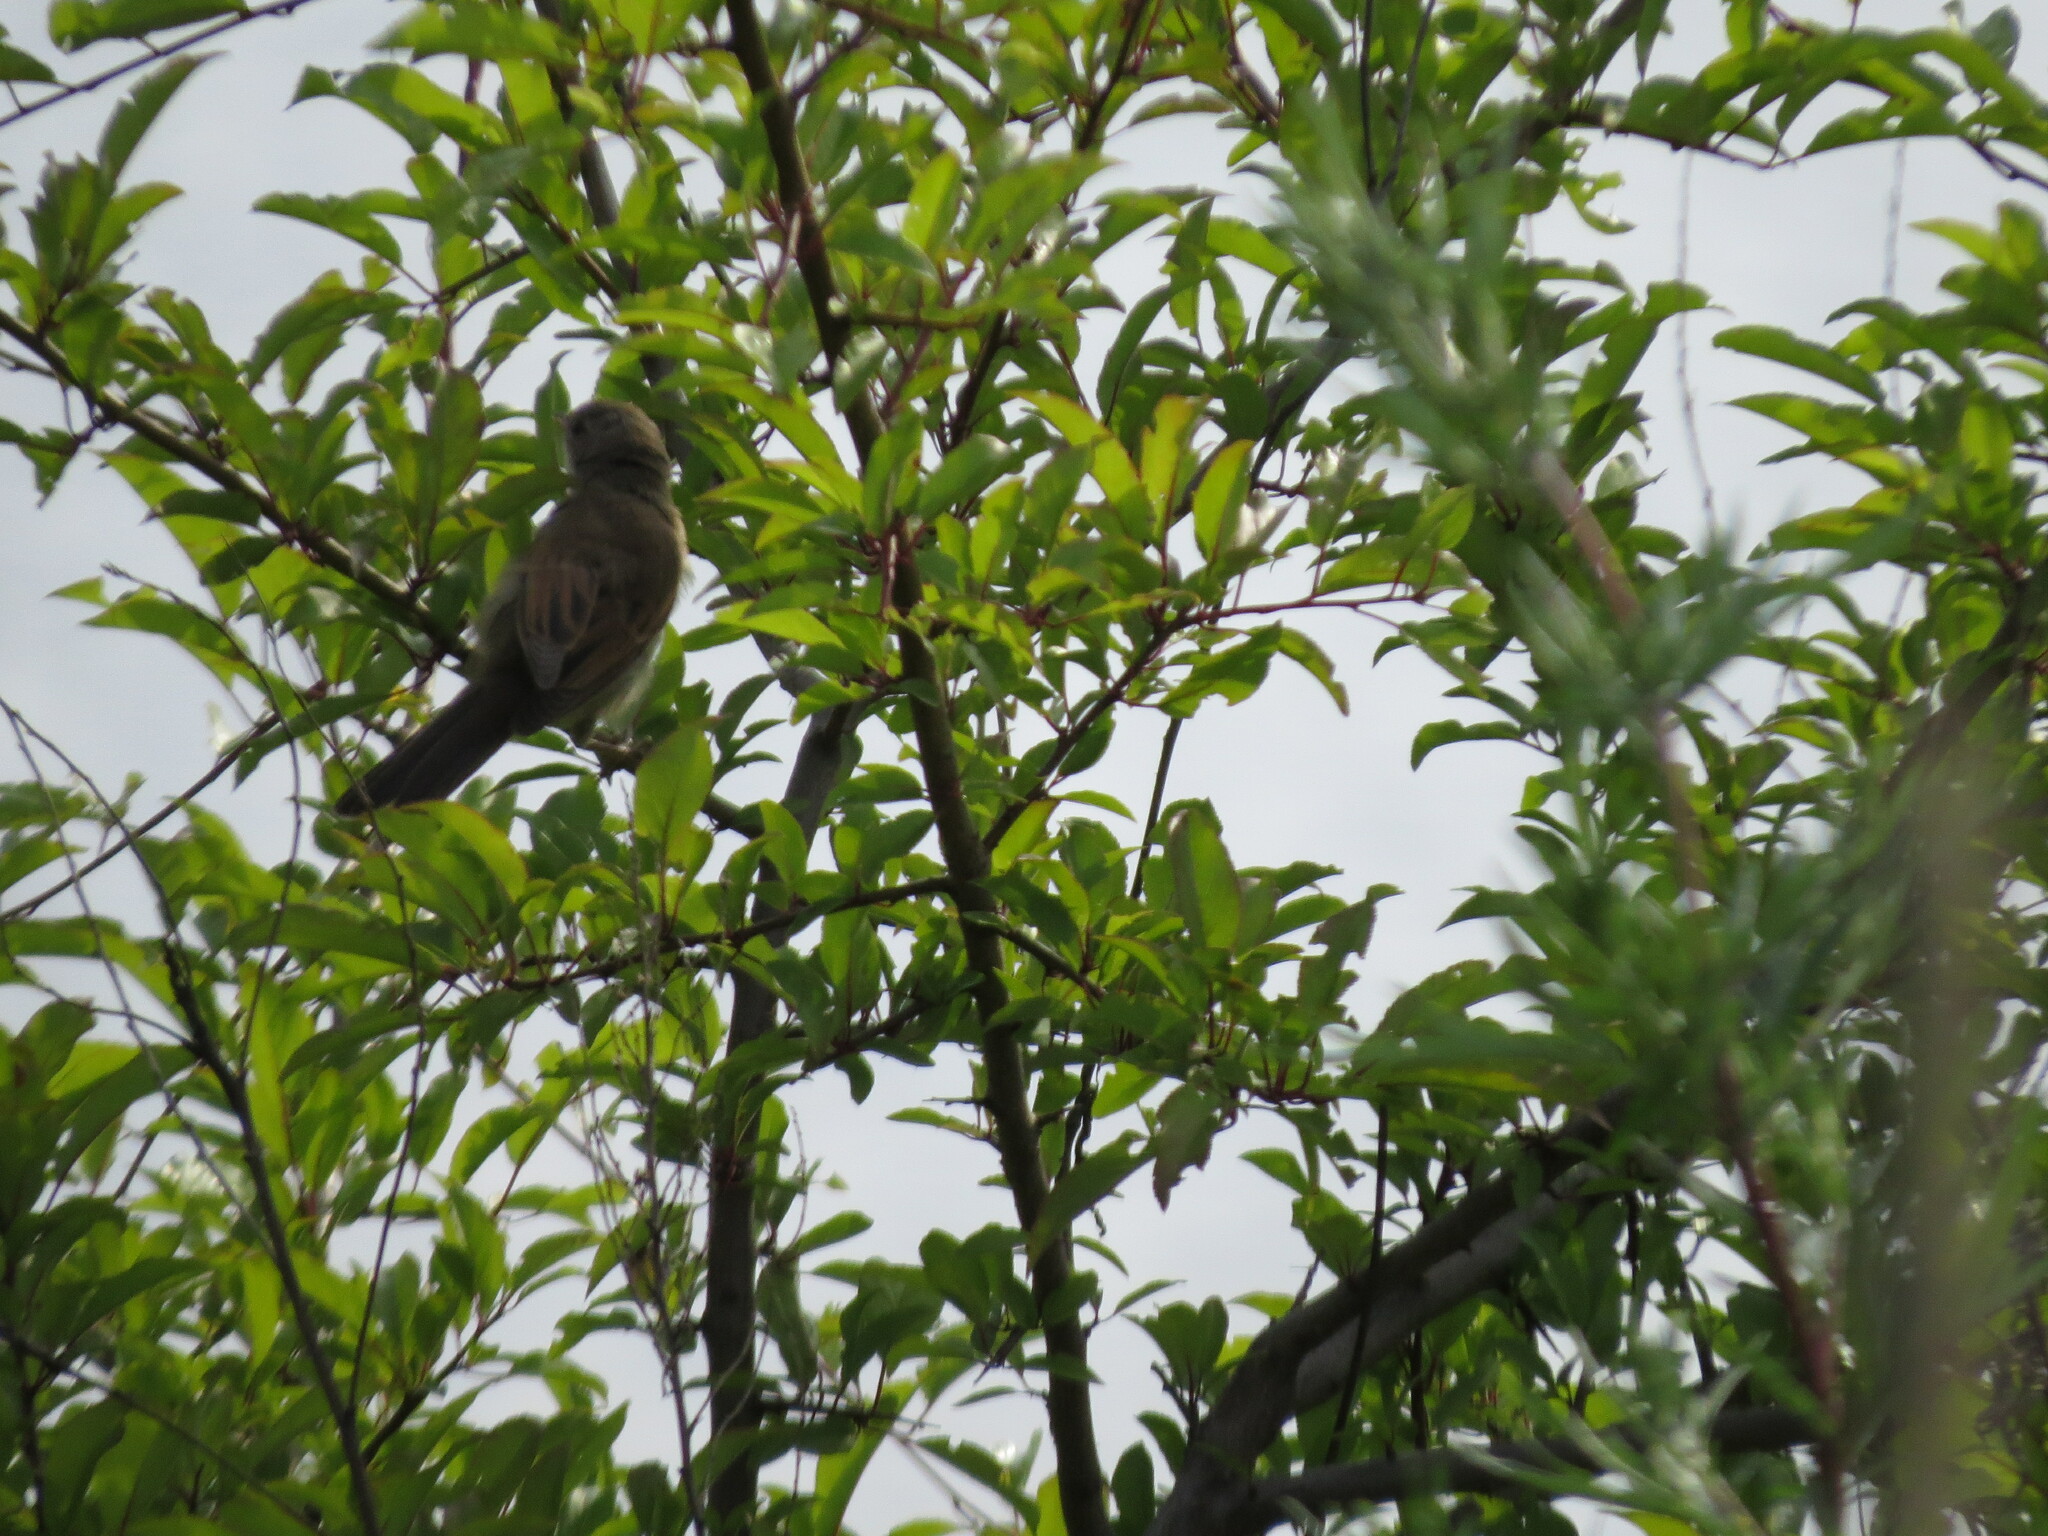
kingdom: Animalia
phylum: Chordata
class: Aves
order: Passeriformes
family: Sylviidae
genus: Sylvia
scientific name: Sylvia communis
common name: Common whitethroat
